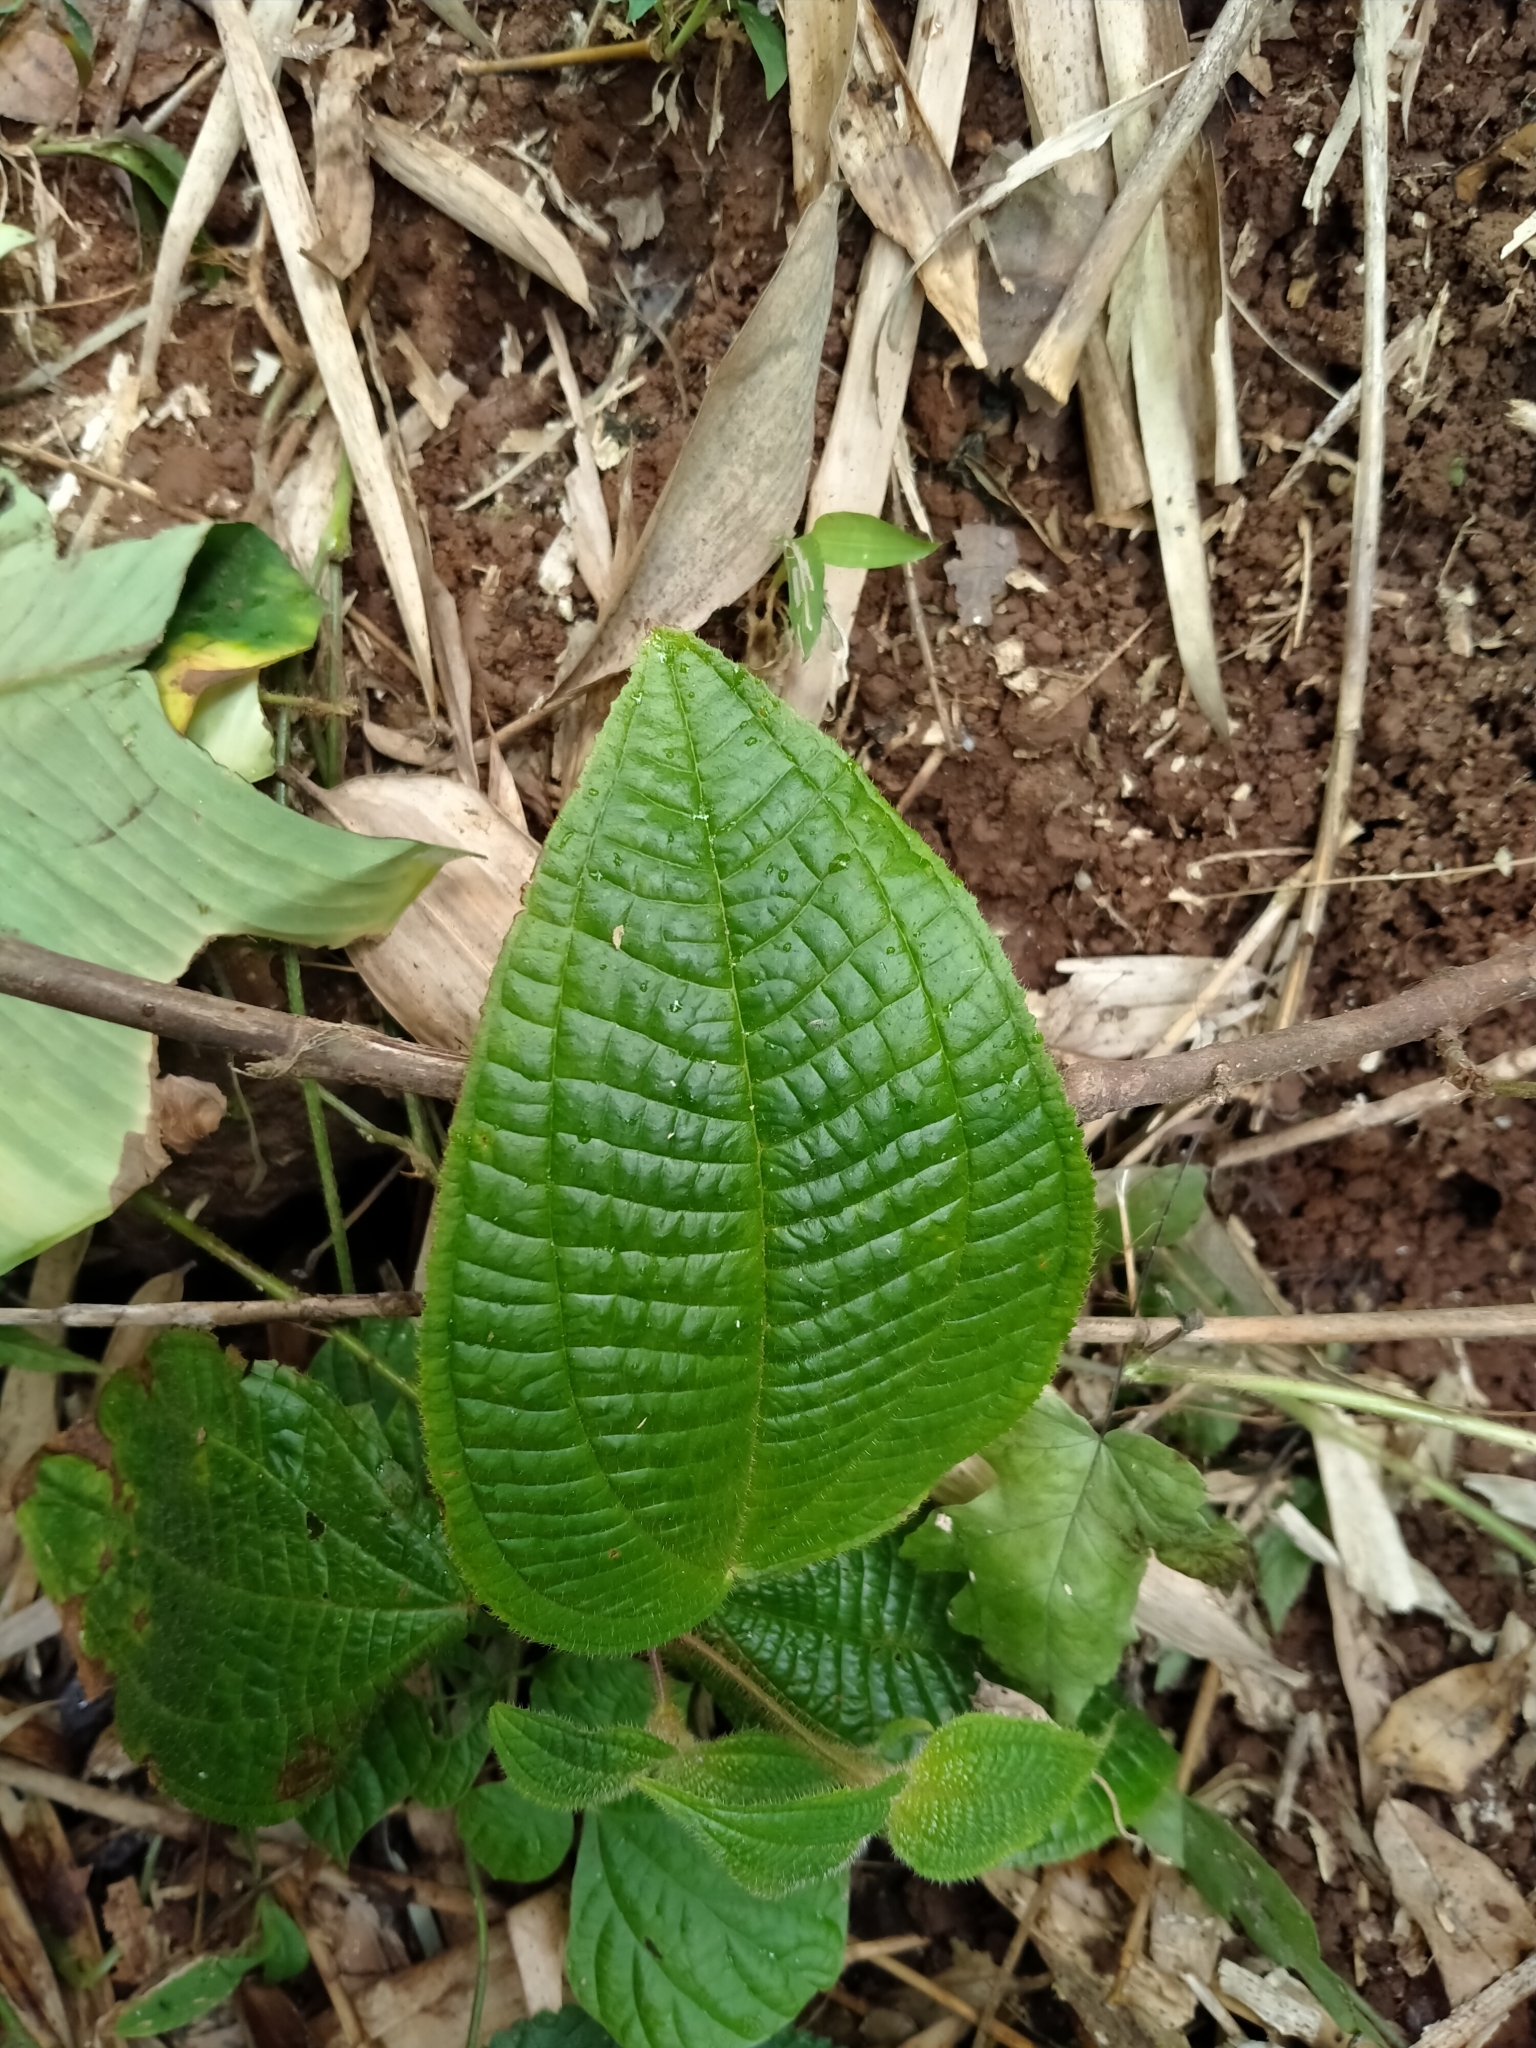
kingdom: Plantae
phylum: Tracheophyta
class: Magnoliopsida
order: Myrtales
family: Melastomataceae
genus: Miconia
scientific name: Miconia crenata
